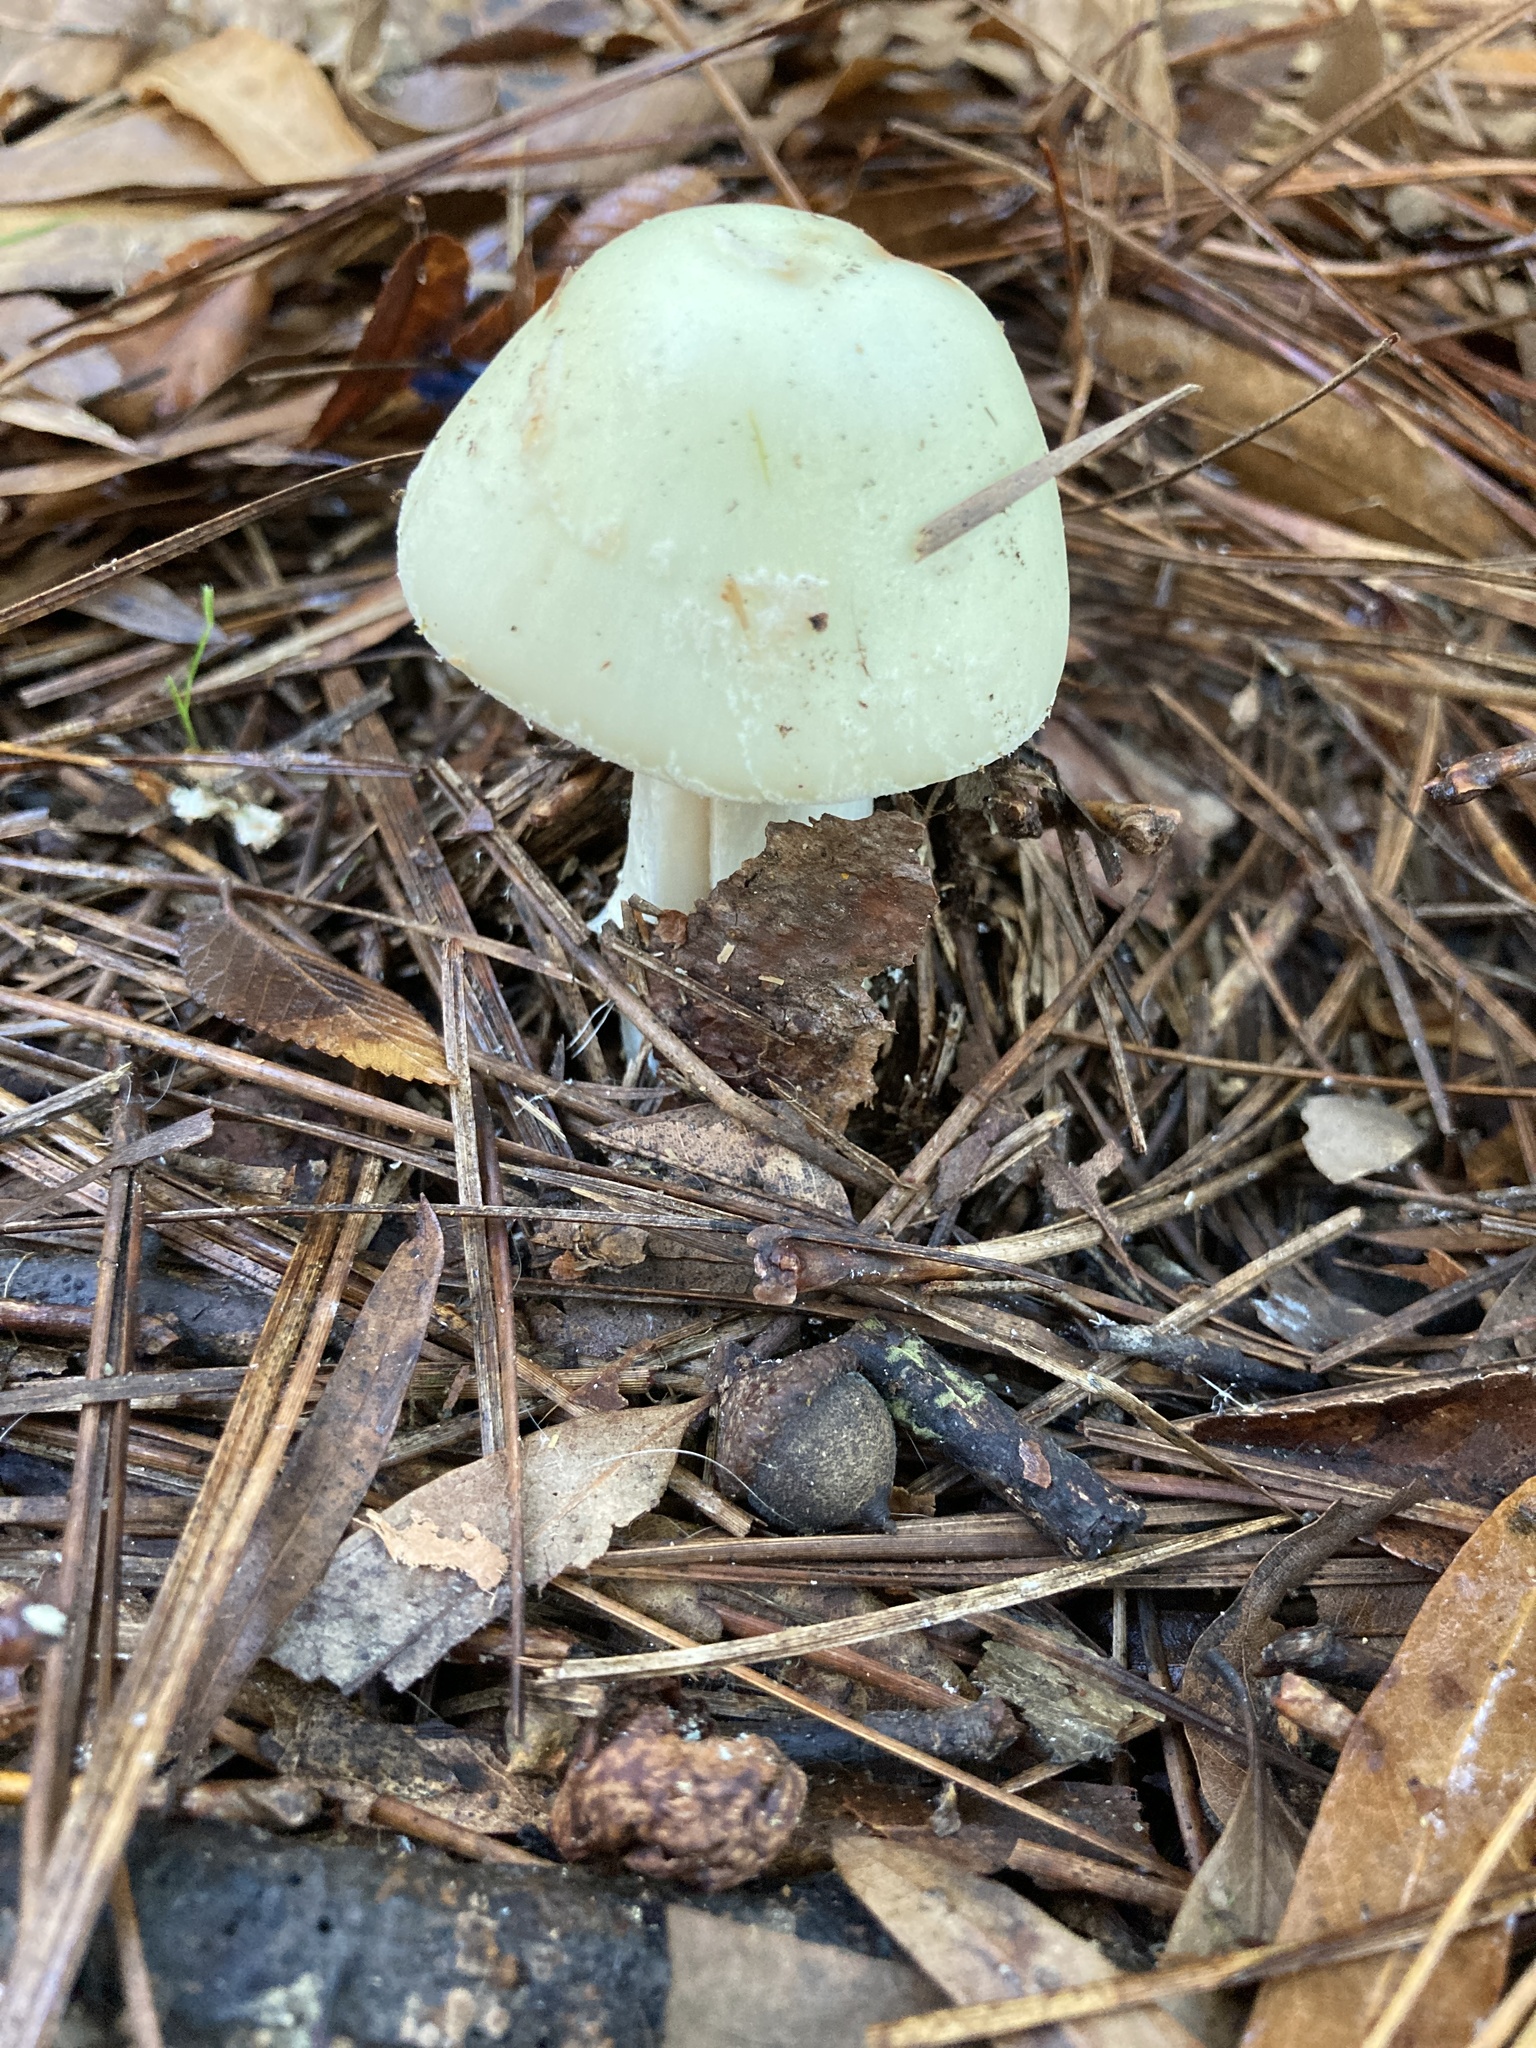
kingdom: Fungi
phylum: Basidiomycota
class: Agaricomycetes
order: Agaricales
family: Amanitaceae
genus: Amanita
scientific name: Amanita lavendula
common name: Coker's lavender staining amanita
